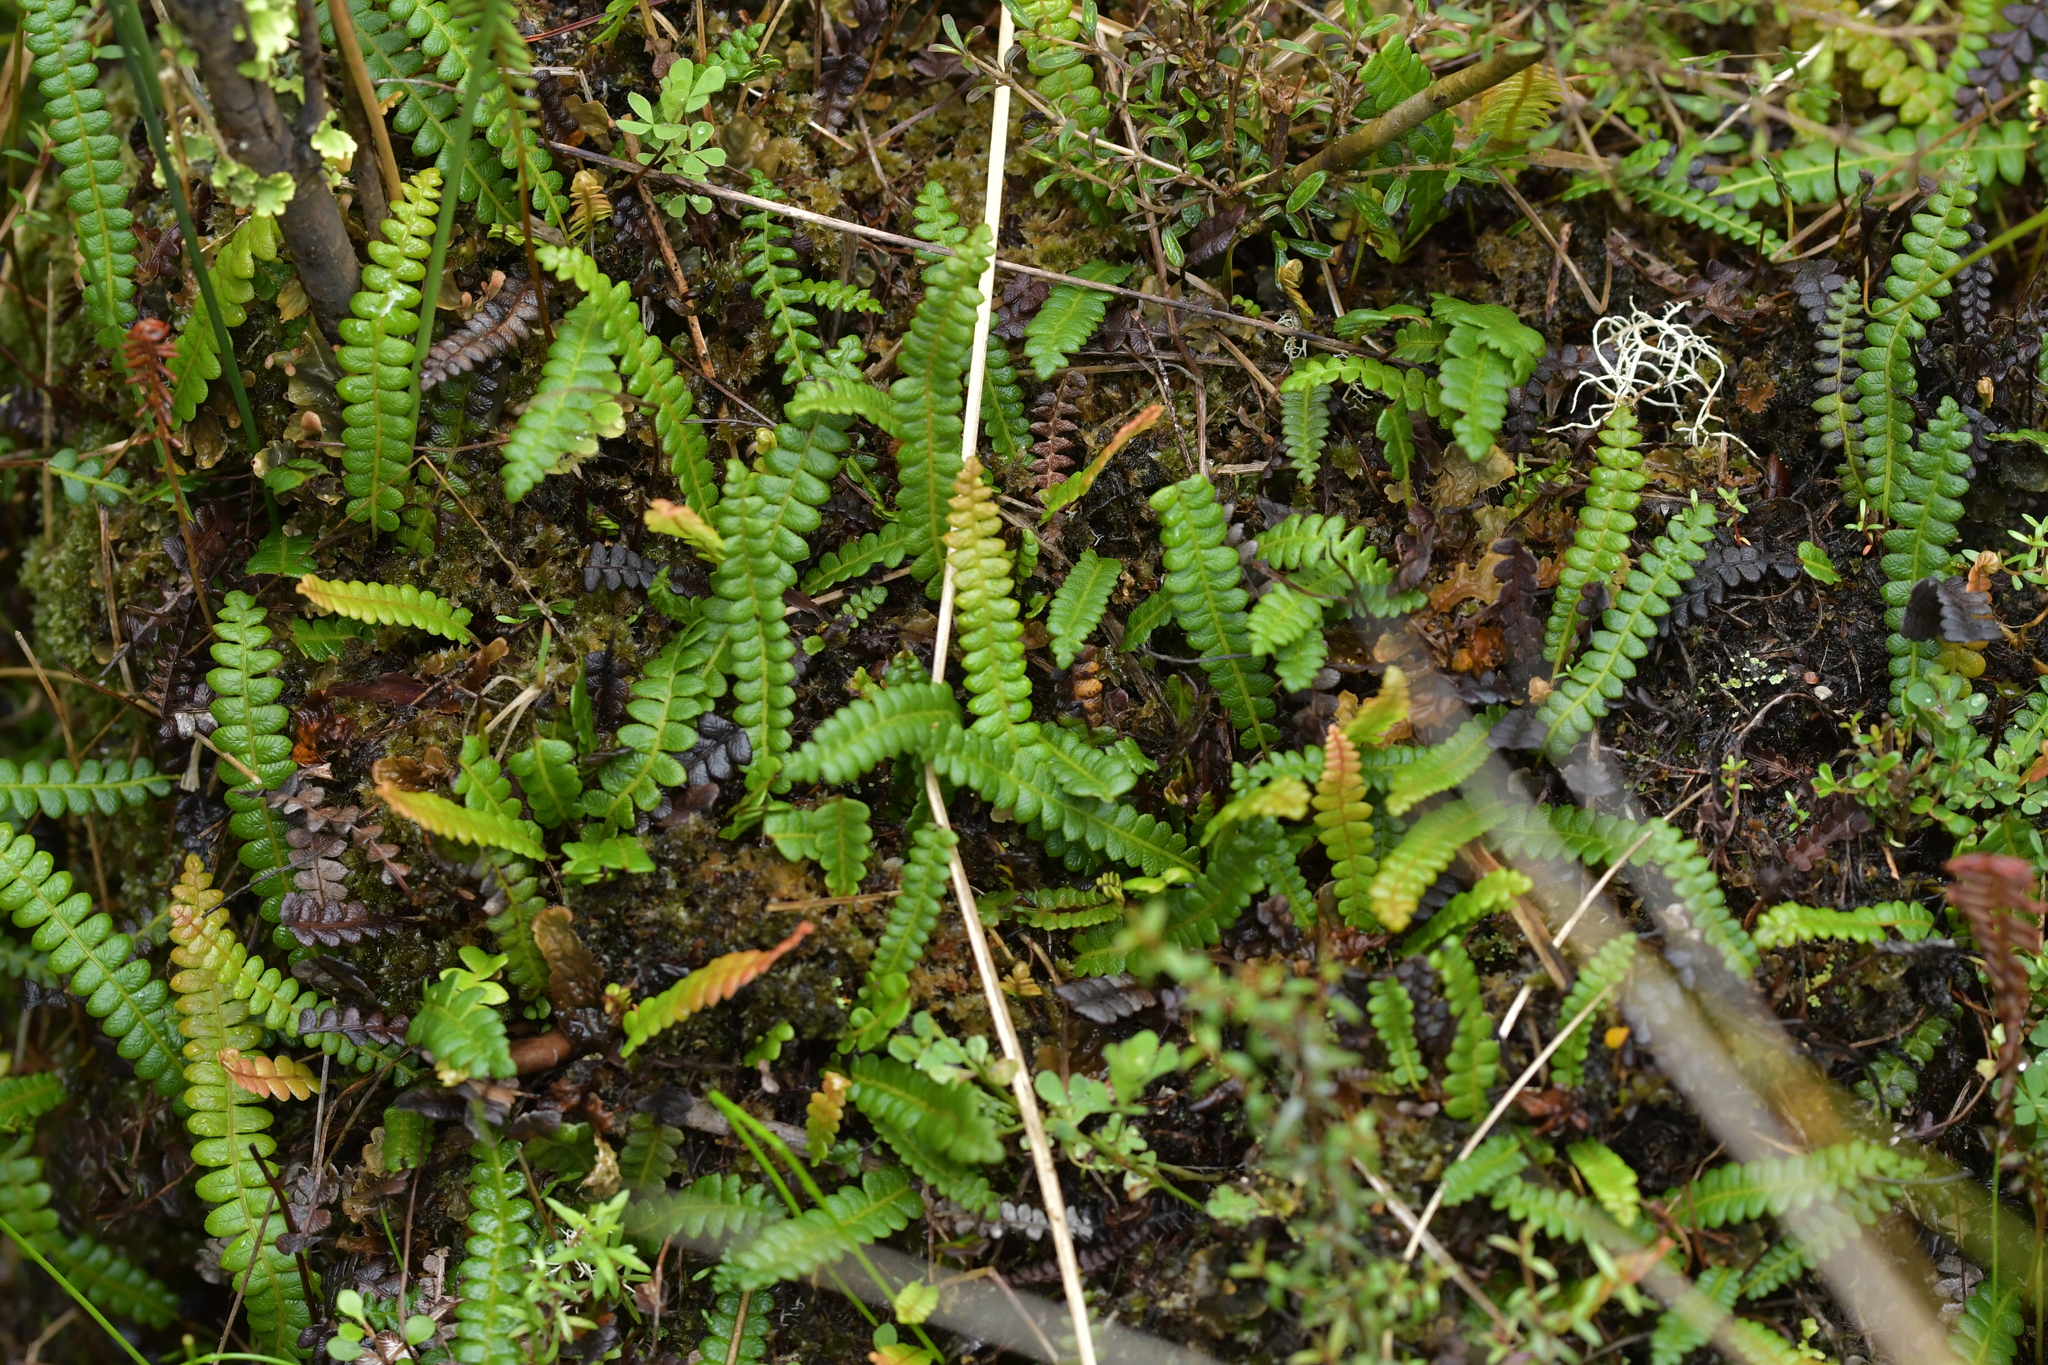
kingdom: Plantae
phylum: Tracheophyta
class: Polypodiopsida
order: Polypodiales
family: Blechnaceae
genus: Austroblechnum
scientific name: Austroblechnum penna-marina
